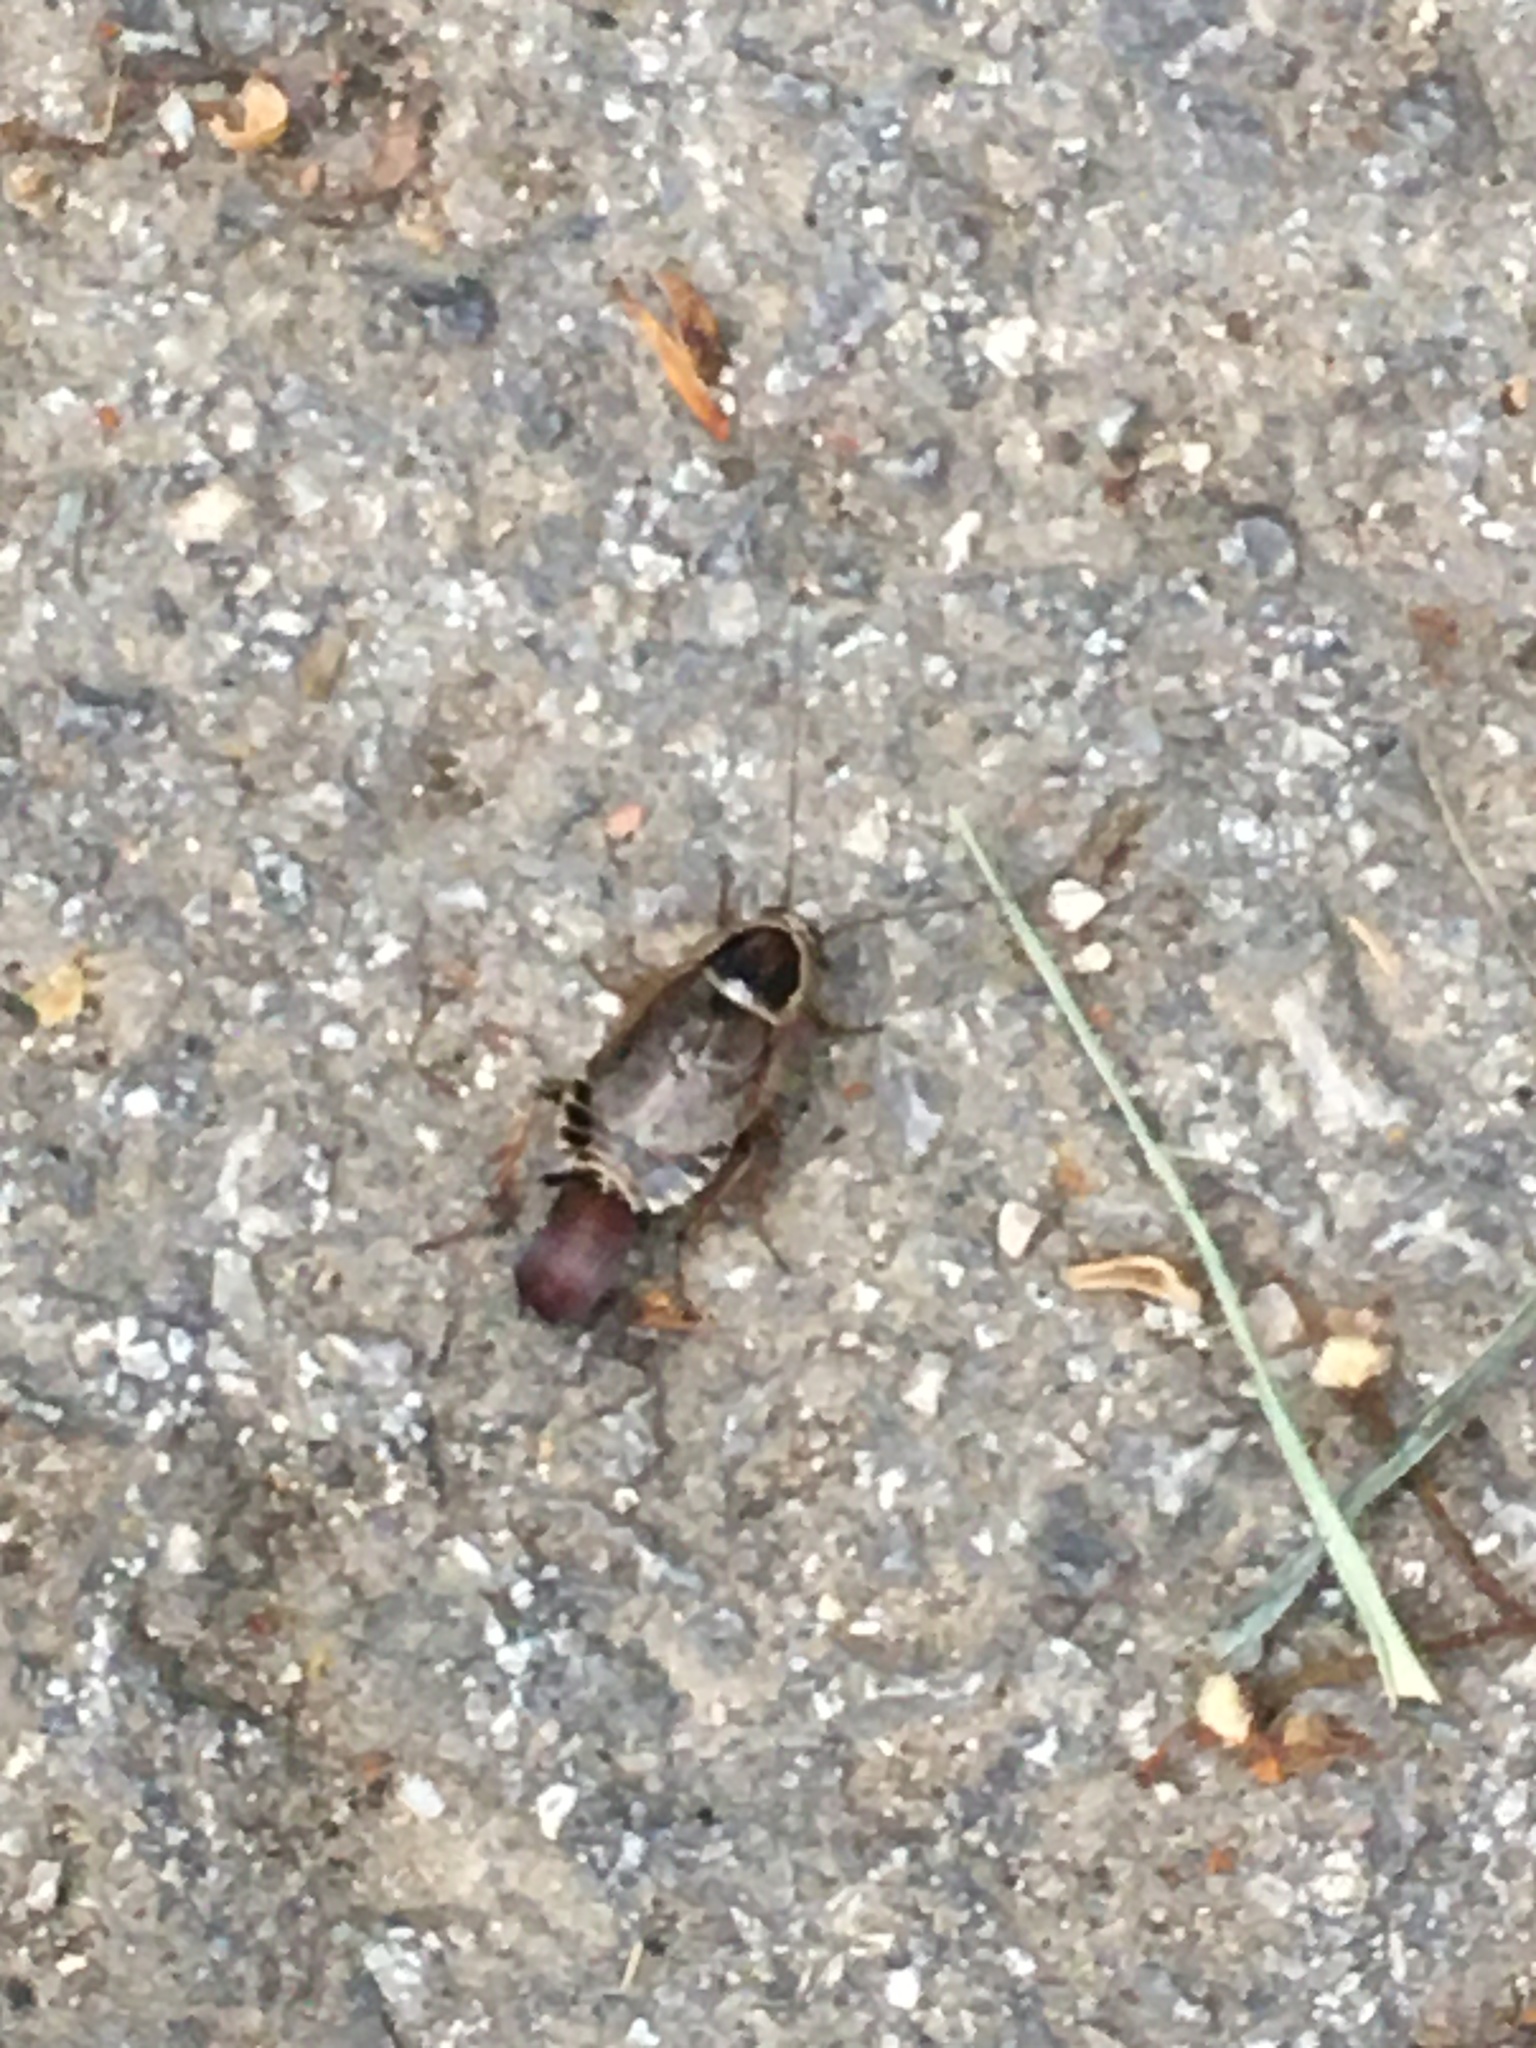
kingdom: Animalia
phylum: Arthropoda
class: Insecta
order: Blattodea
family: Ectobiidae
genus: Ectobius
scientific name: Ectobius sylvestris
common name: Forest cockroach
